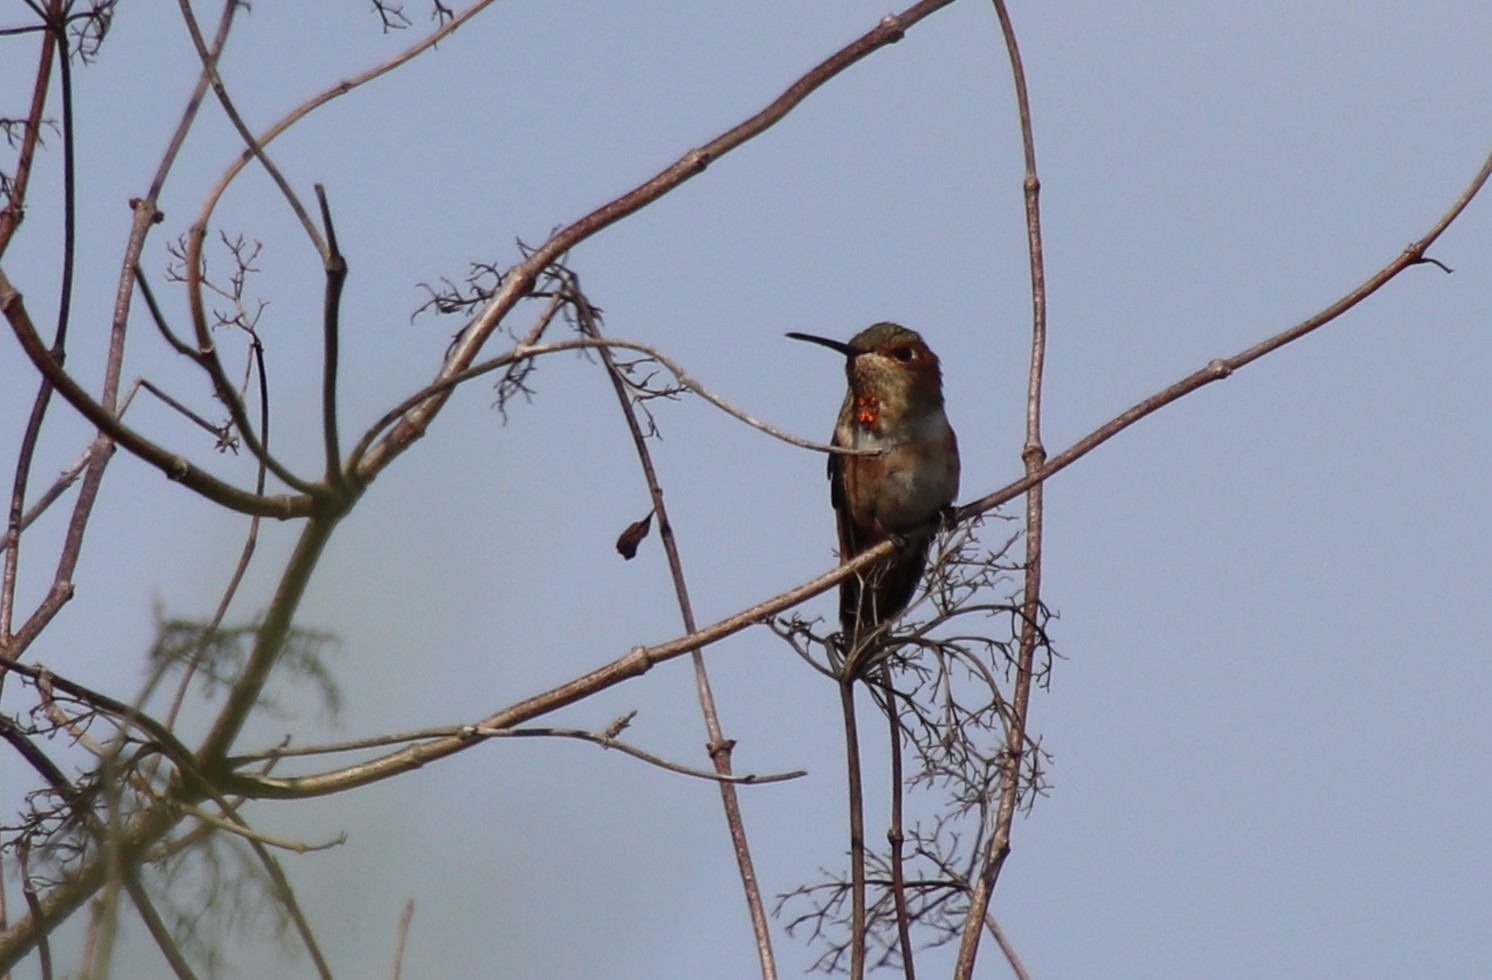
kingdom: Animalia
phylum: Chordata
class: Aves
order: Apodiformes
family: Trochilidae
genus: Selasphorus
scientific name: Selasphorus
